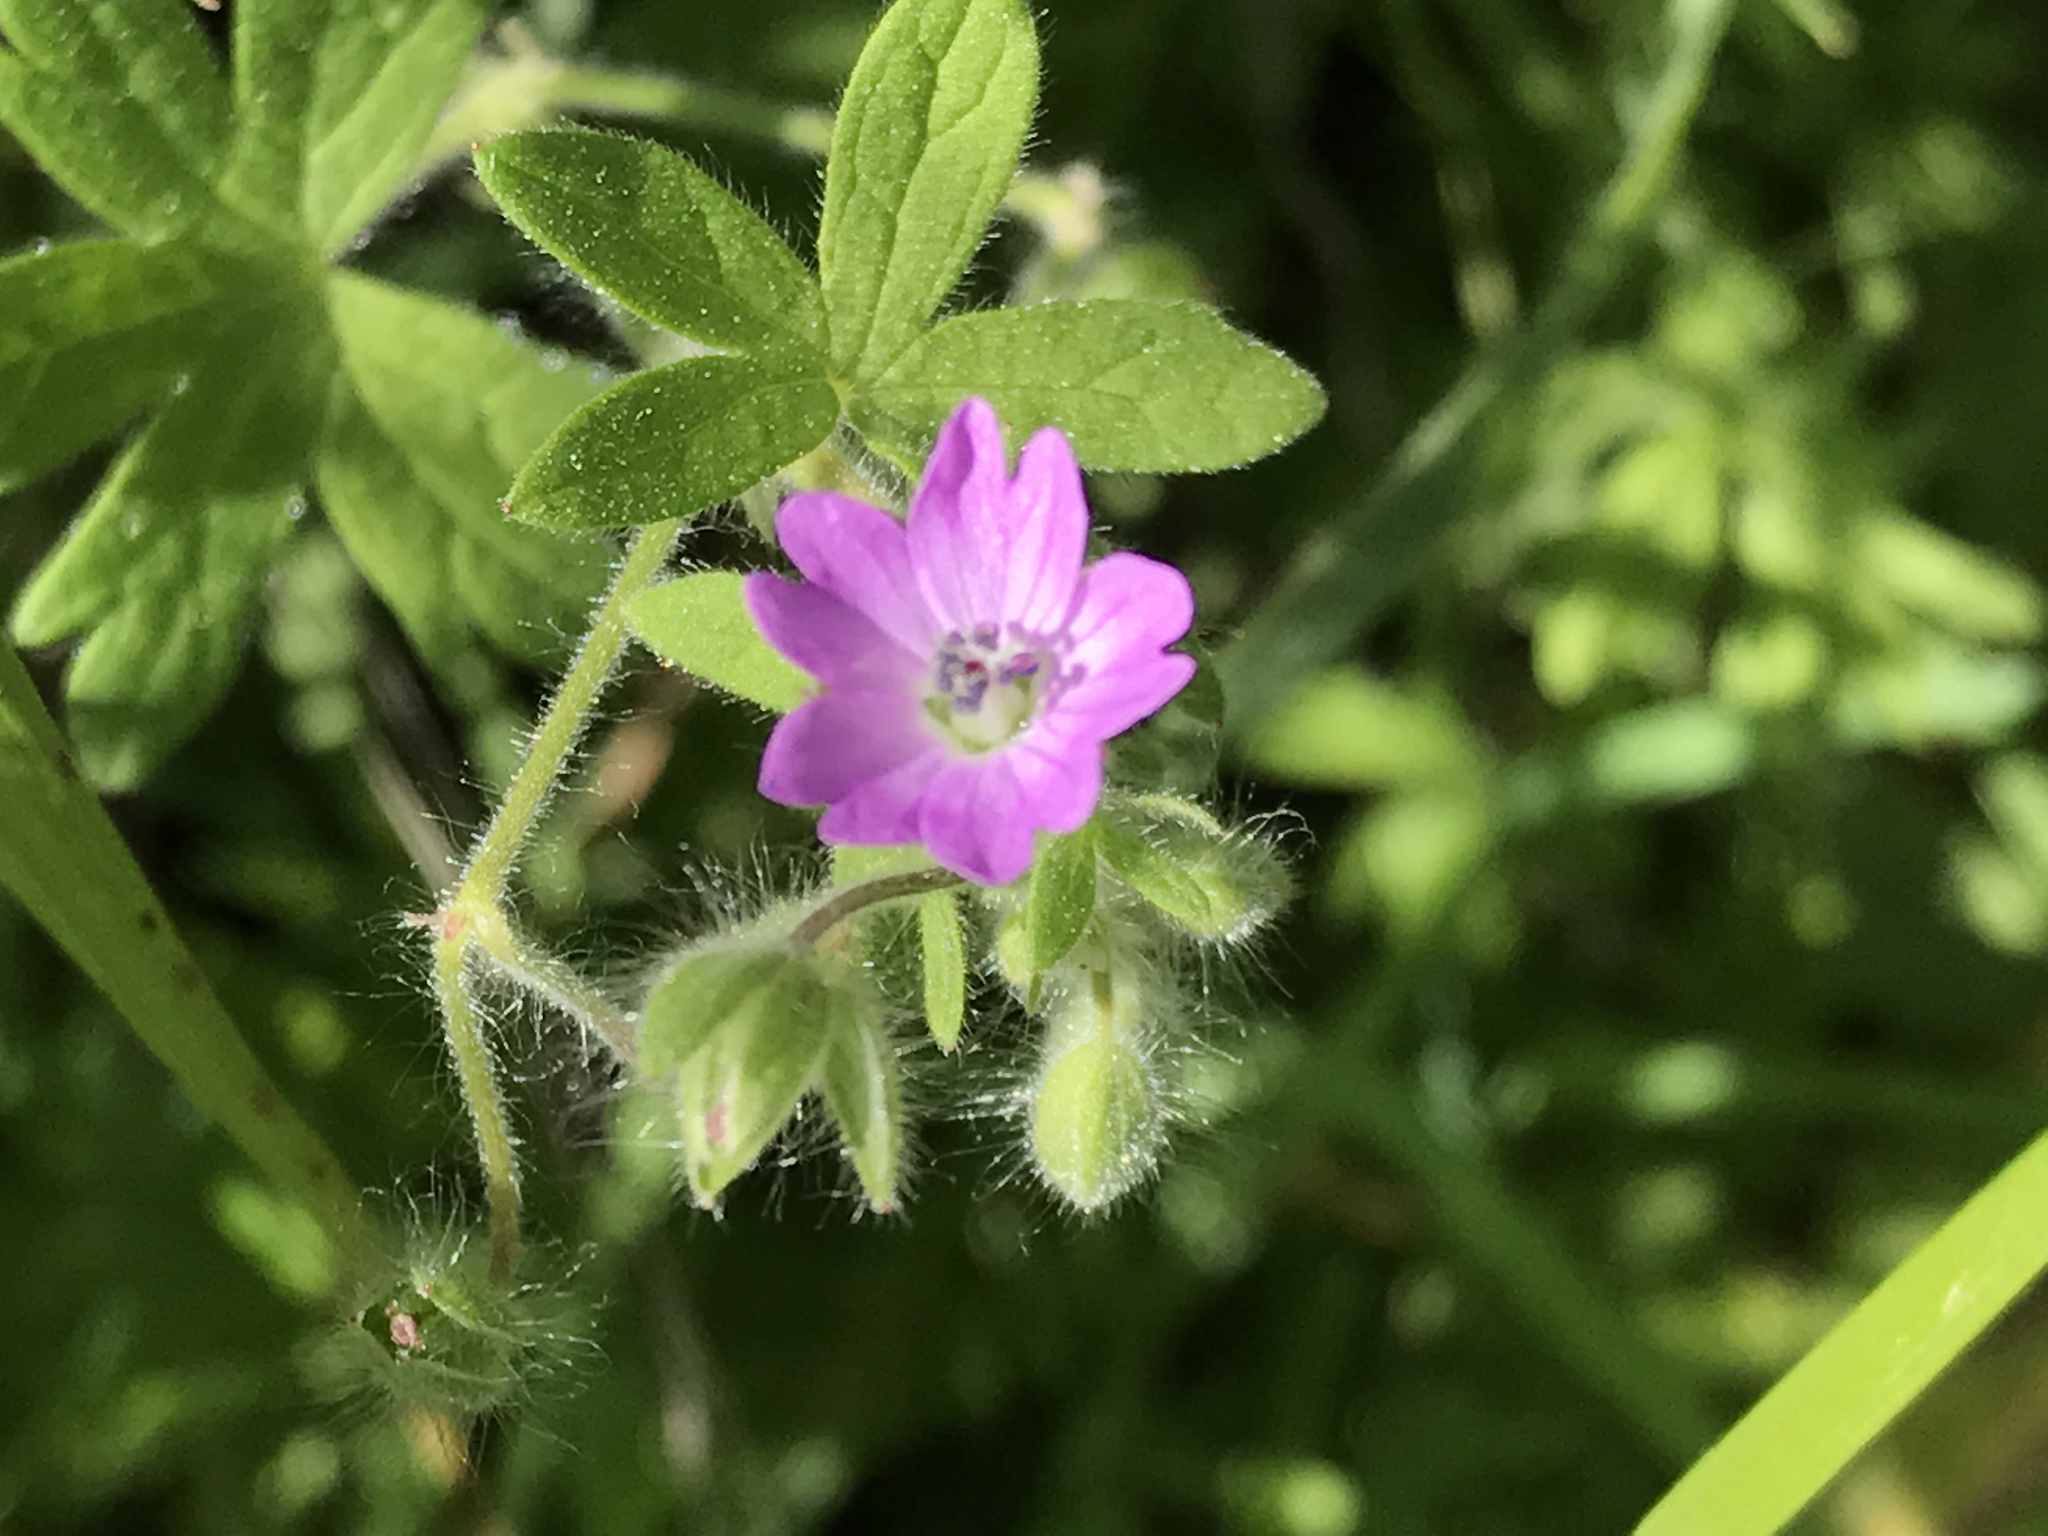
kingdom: Plantae
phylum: Tracheophyta
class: Magnoliopsida
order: Geraniales
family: Geraniaceae
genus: Geranium
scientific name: Geranium molle
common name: Dove's-foot crane's-bill
